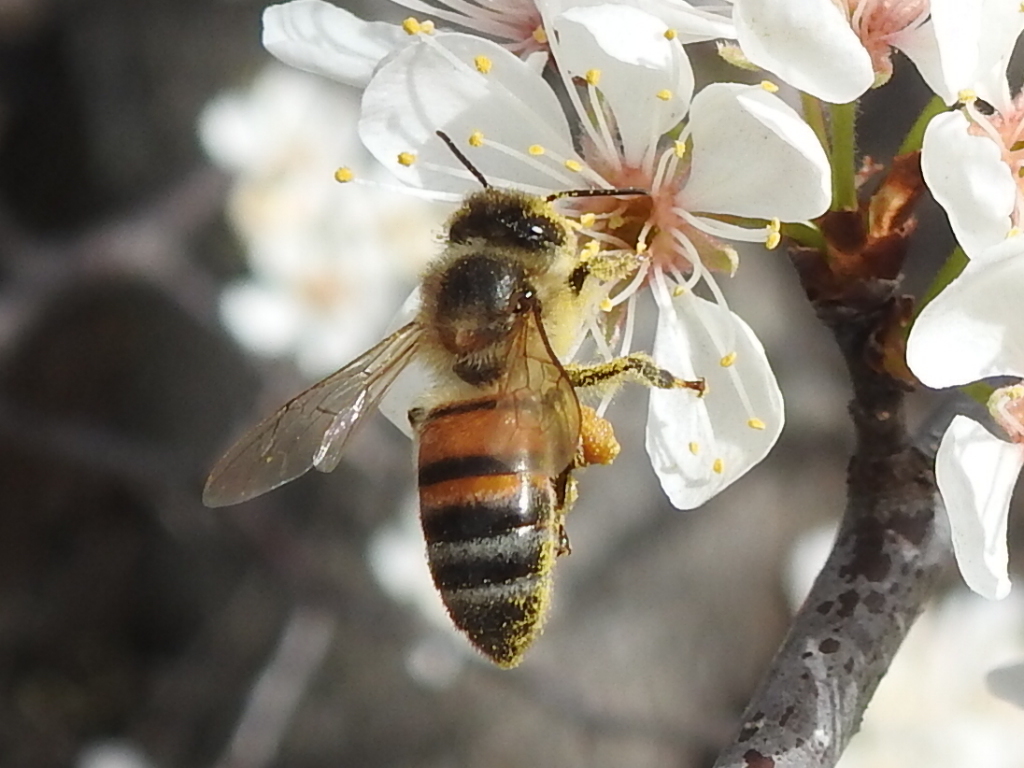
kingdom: Animalia
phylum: Arthropoda
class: Insecta
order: Hymenoptera
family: Apidae
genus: Apis
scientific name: Apis mellifera
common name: Honey bee
